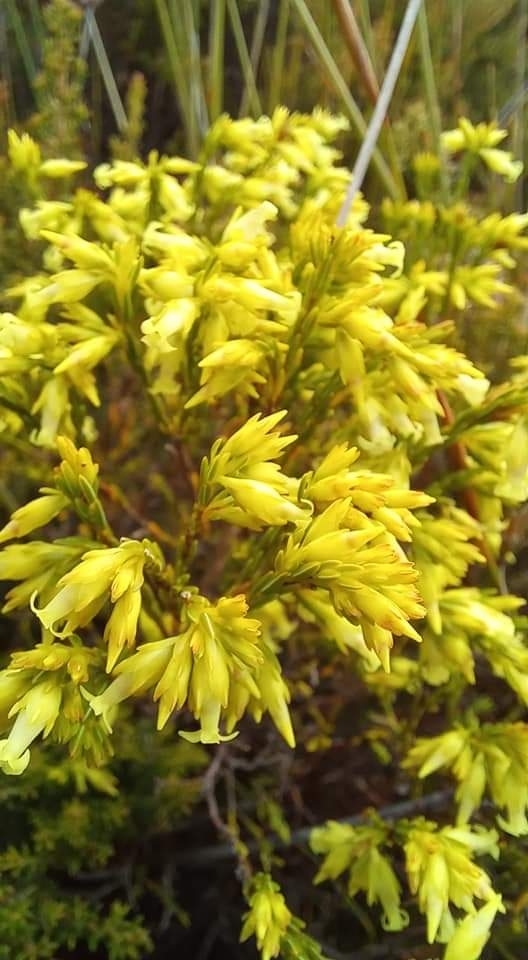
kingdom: Plantae
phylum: Tracheophyta
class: Magnoliopsida
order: Ericales
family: Ericaceae
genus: Erica
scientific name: Erica lutea
